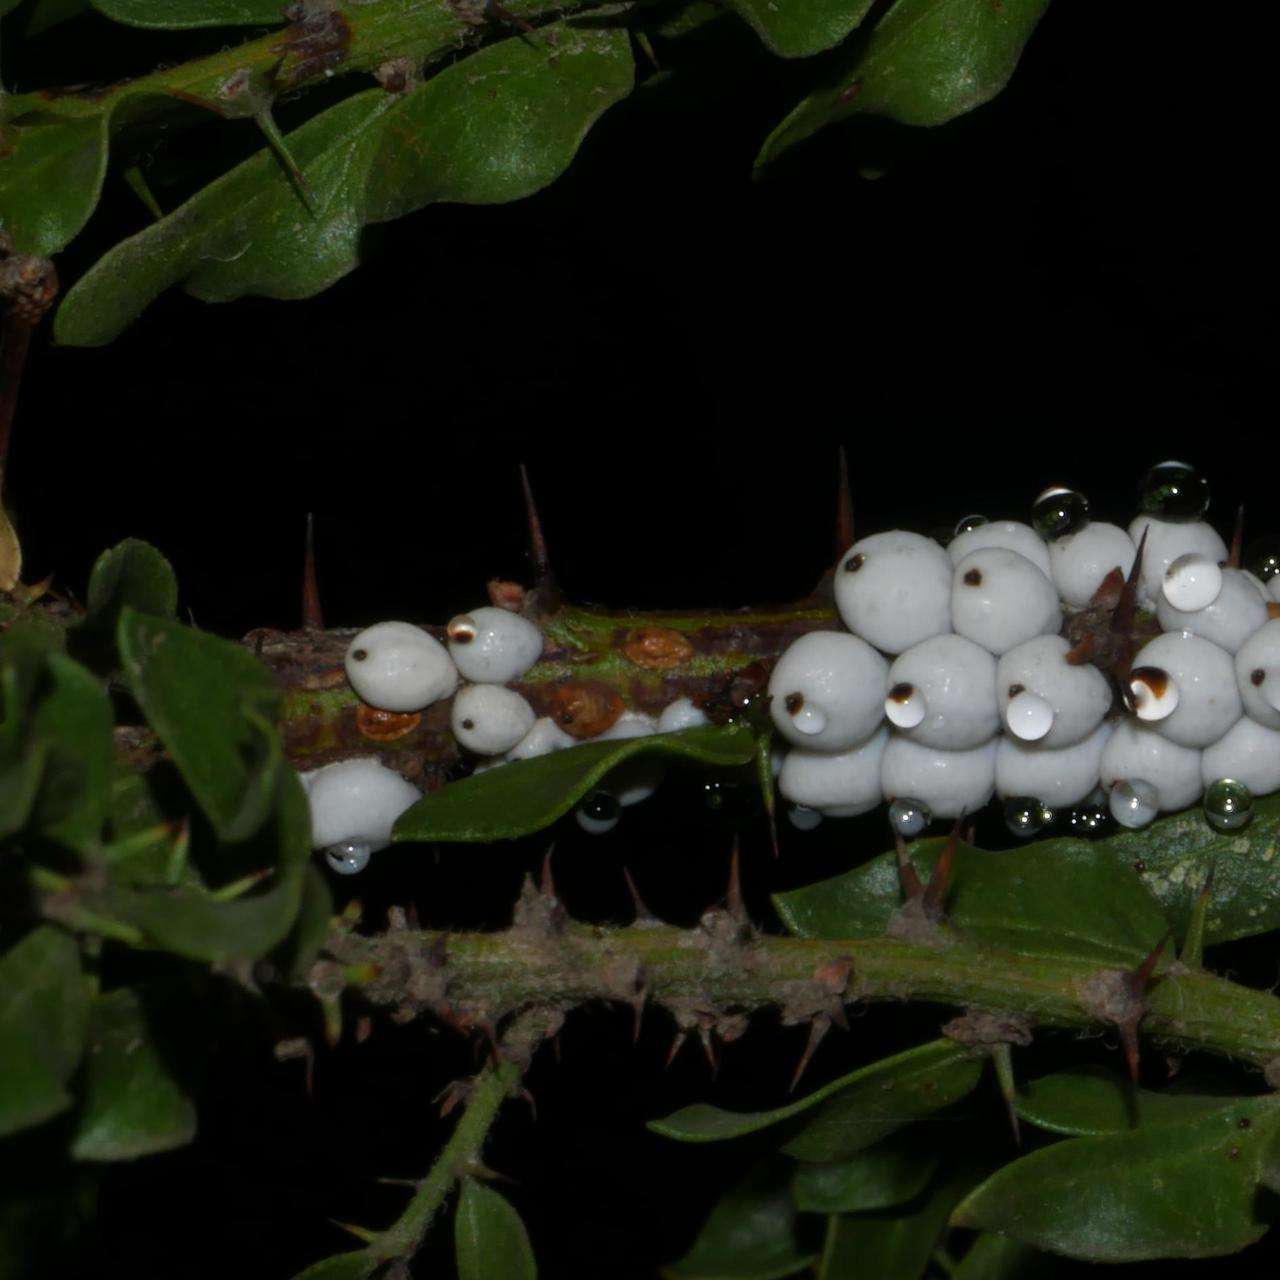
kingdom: Animalia
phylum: Arthropoda
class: Insecta
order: Hemiptera
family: Coccidae
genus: Cryptes
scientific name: Cryptes baccatus
